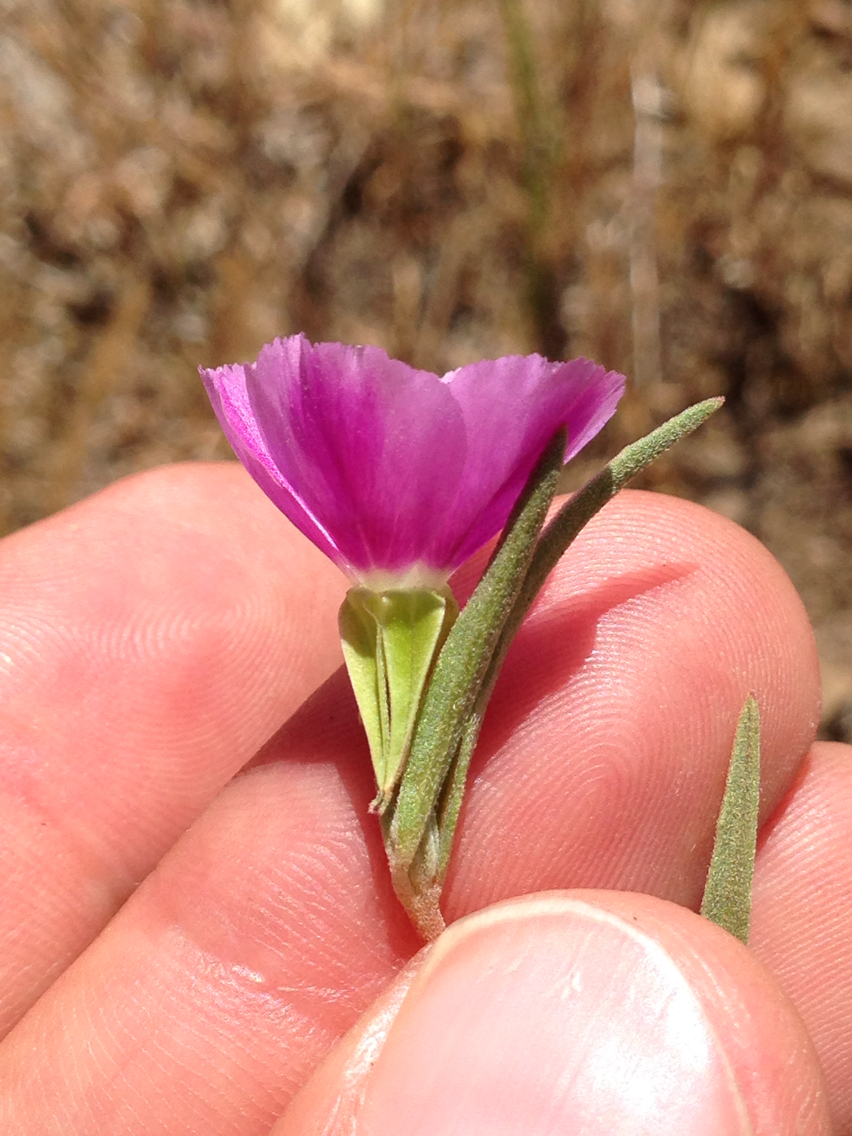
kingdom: Plantae
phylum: Tracheophyta
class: Magnoliopsida
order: Myrtales
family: Onagraceae
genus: Clarkia
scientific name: Clarkia purpurea
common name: Purple clarkia
